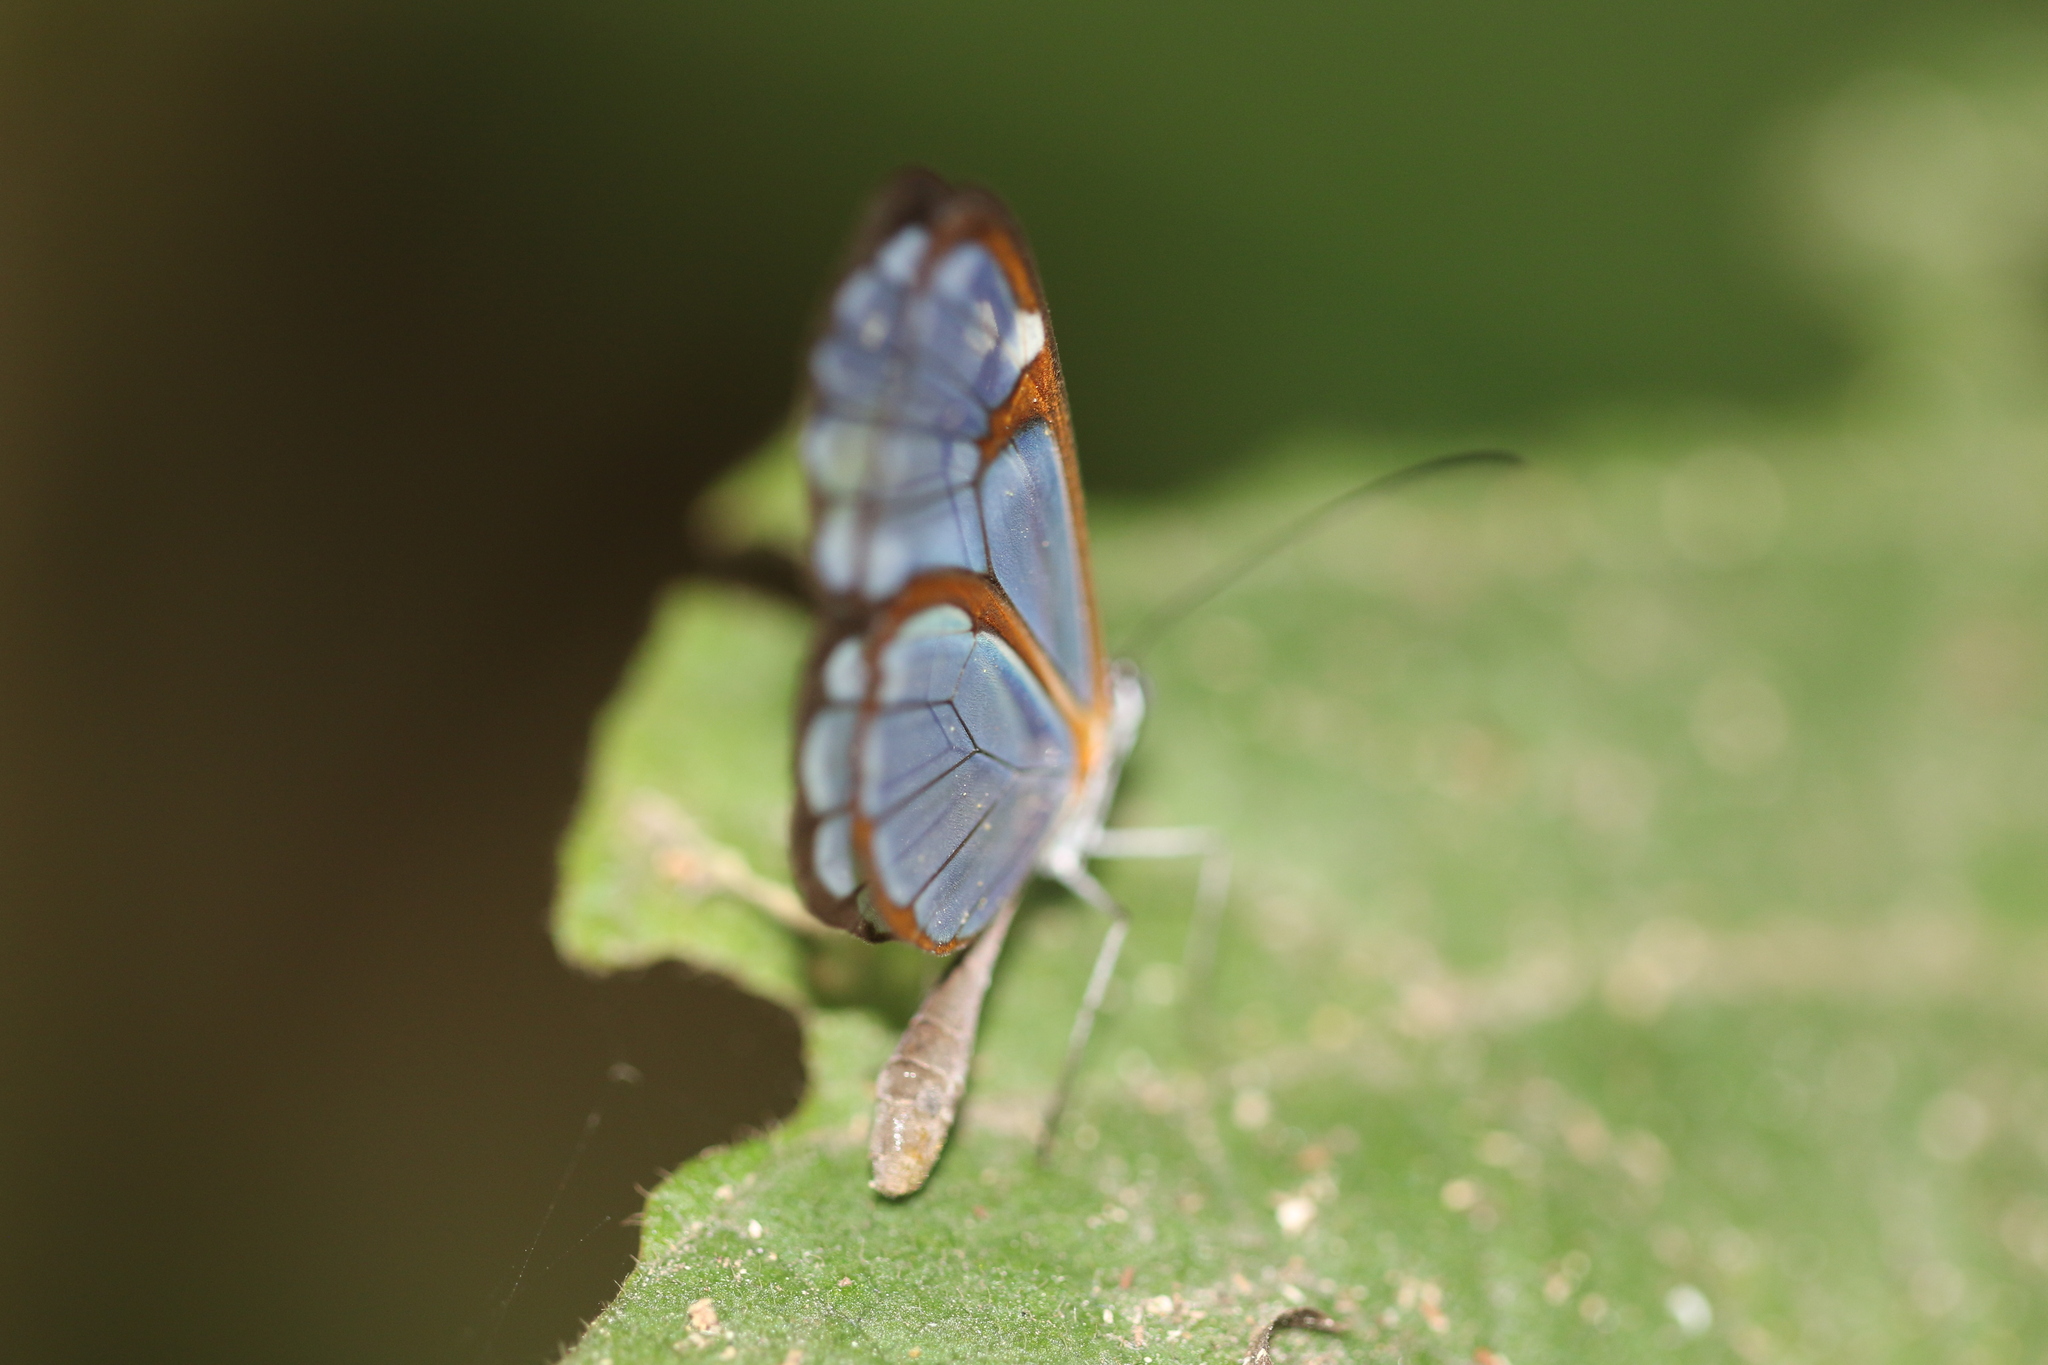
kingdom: Animalia
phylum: Arthropoda
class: Insecta
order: Lepidoptera
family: Nymphalidae
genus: Pseudoscada
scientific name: Pseudoscada erruca
